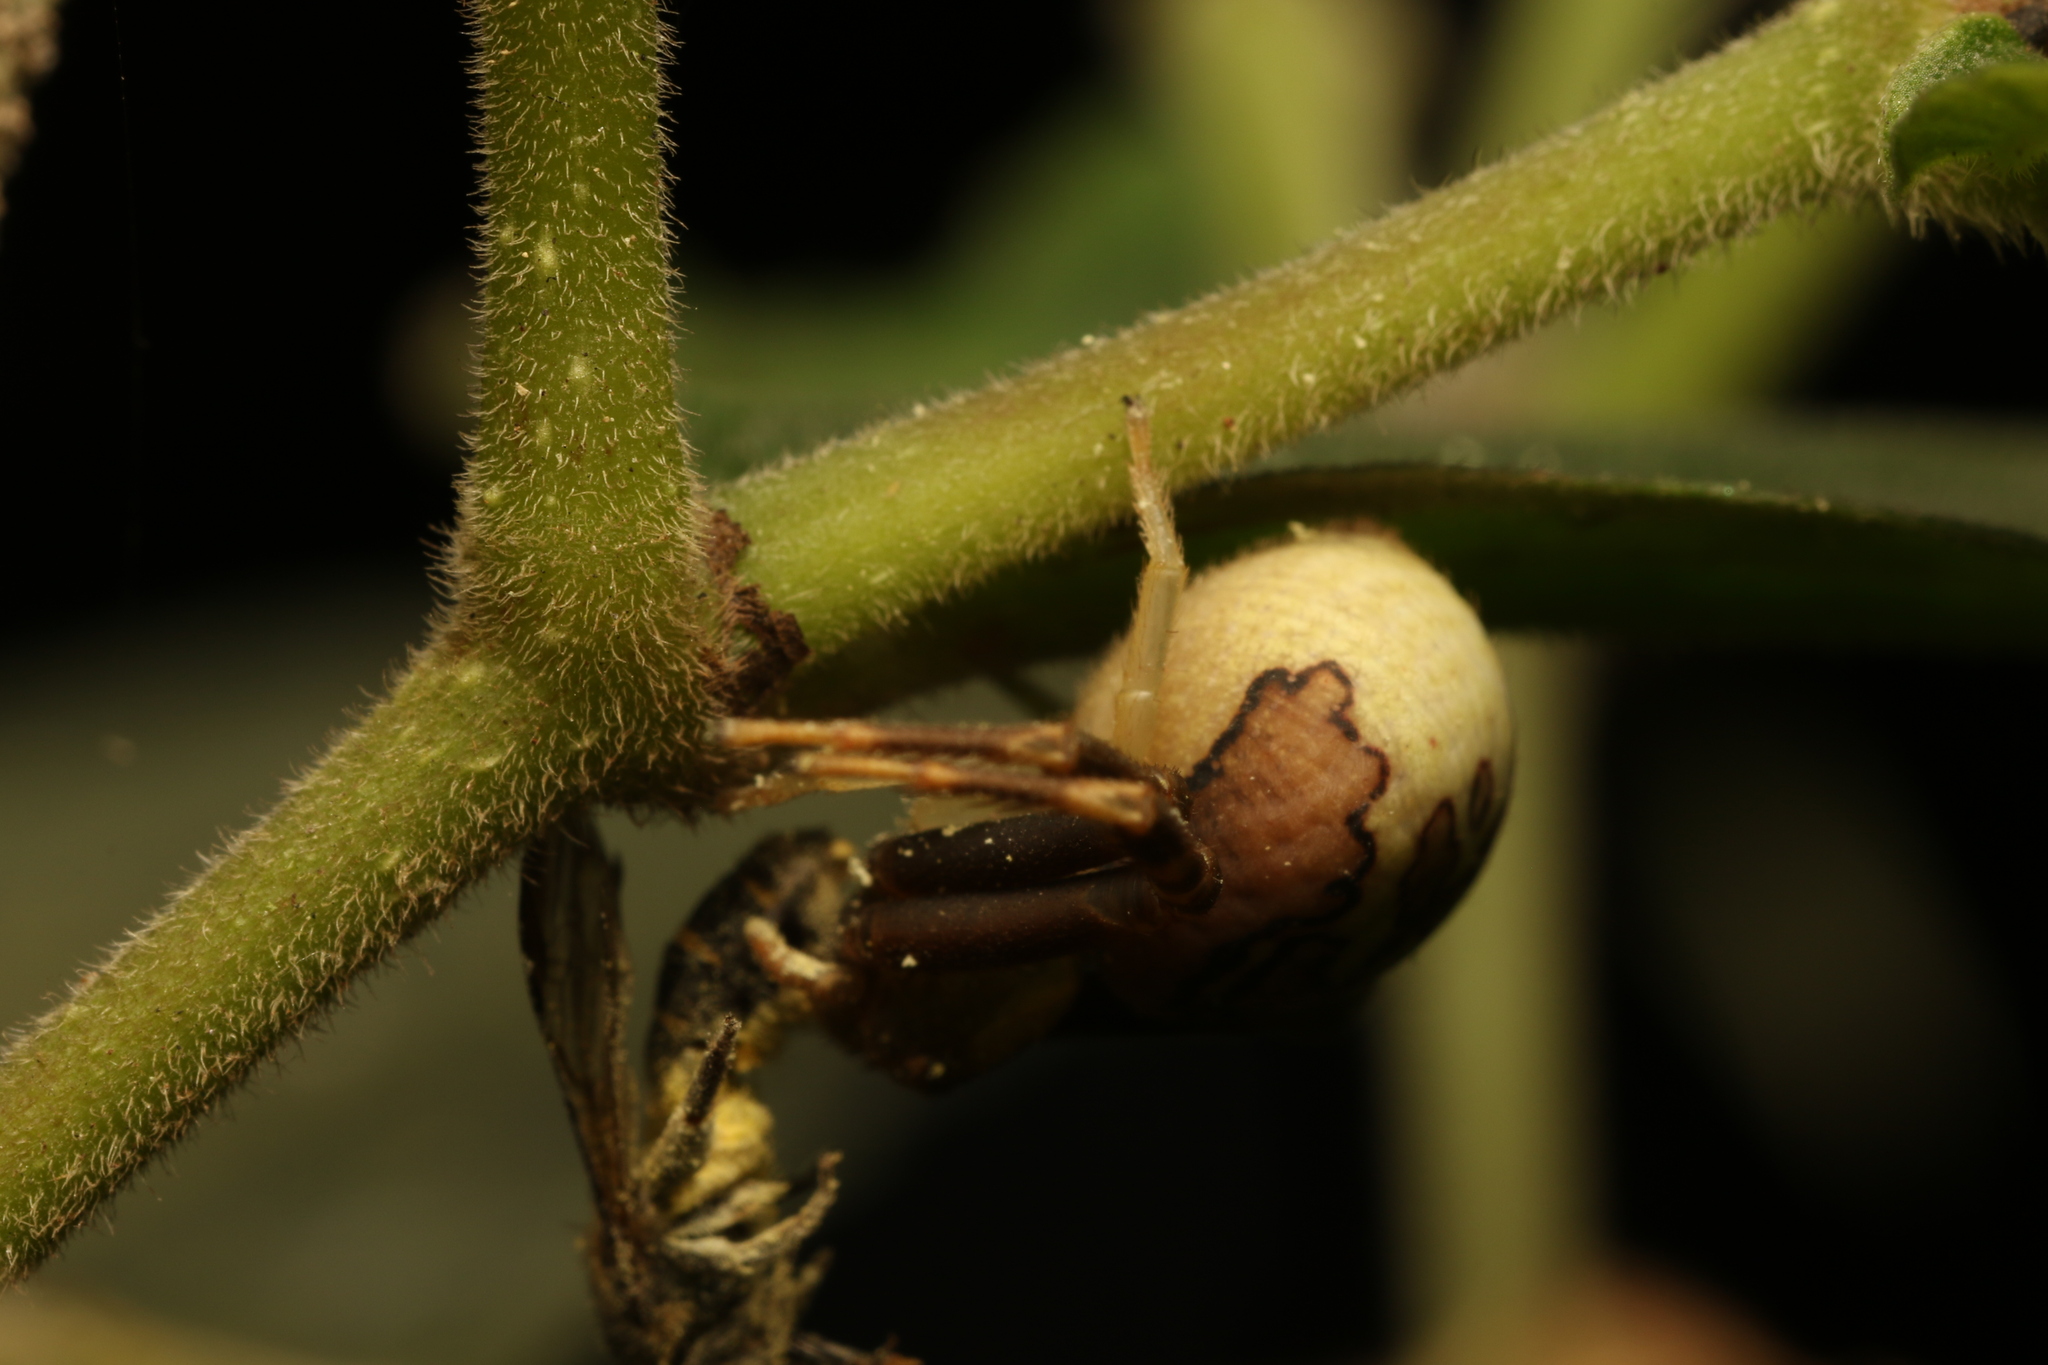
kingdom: Animalia
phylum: Arthropoda
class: Arachnida
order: Araneae
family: Thomisidae
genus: Runcinioides
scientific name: Runcinioides litteratus
